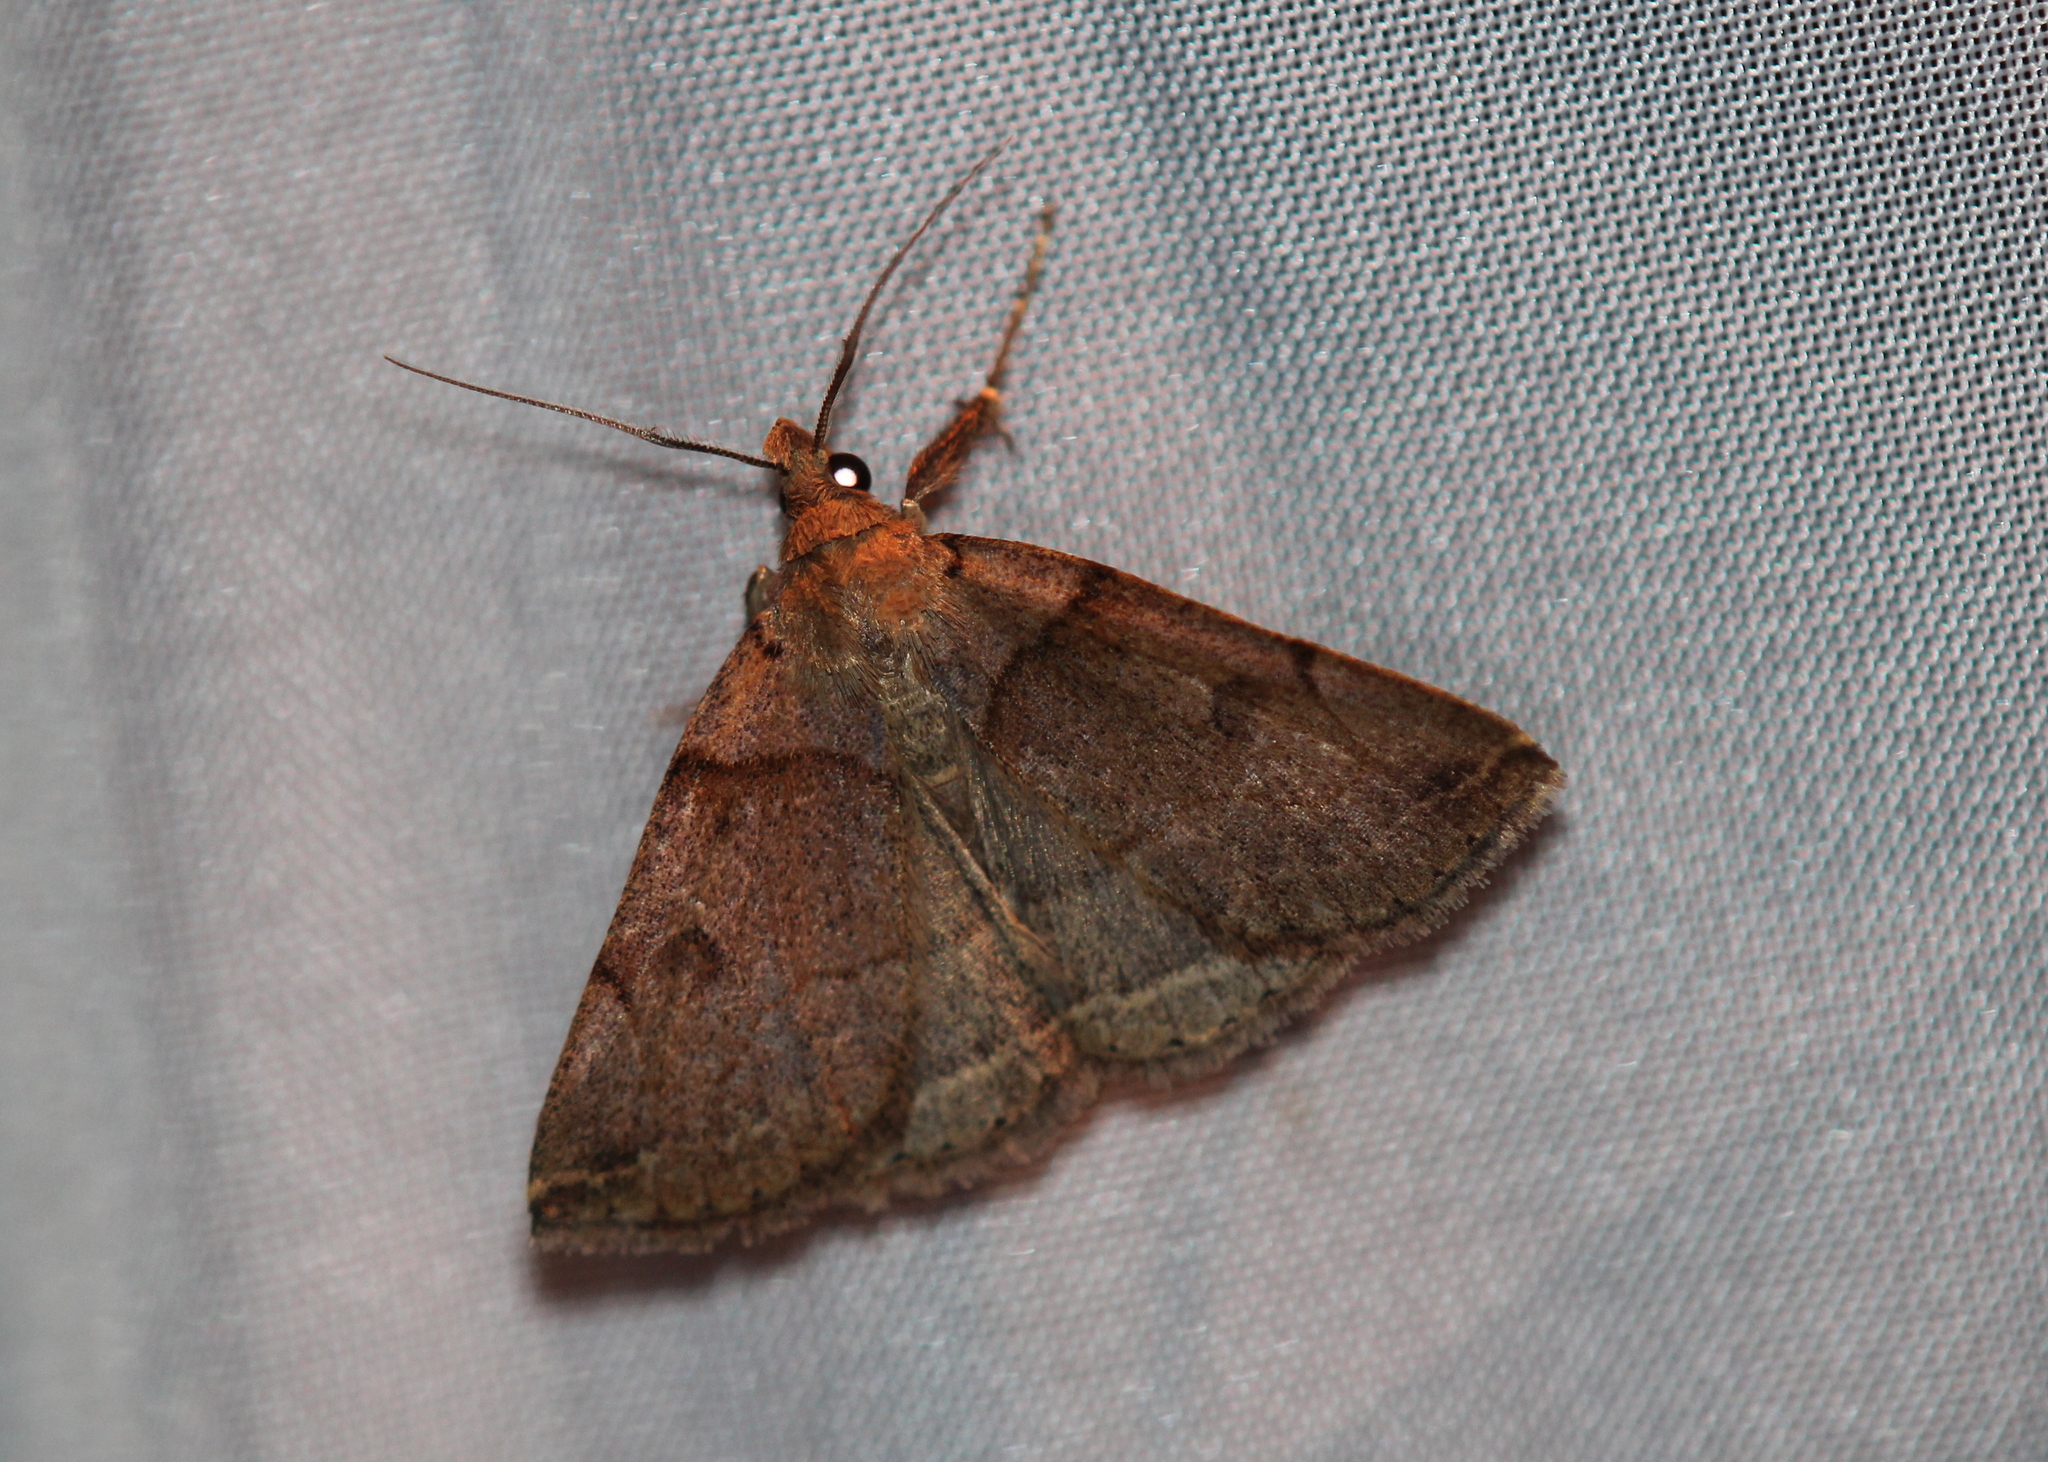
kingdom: Animalia
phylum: Arthropoda
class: Insecta
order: Lepidoptera
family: Erebidae
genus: Zanclognatha
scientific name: Zanclognatha laevigata
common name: Variable fan-foot
